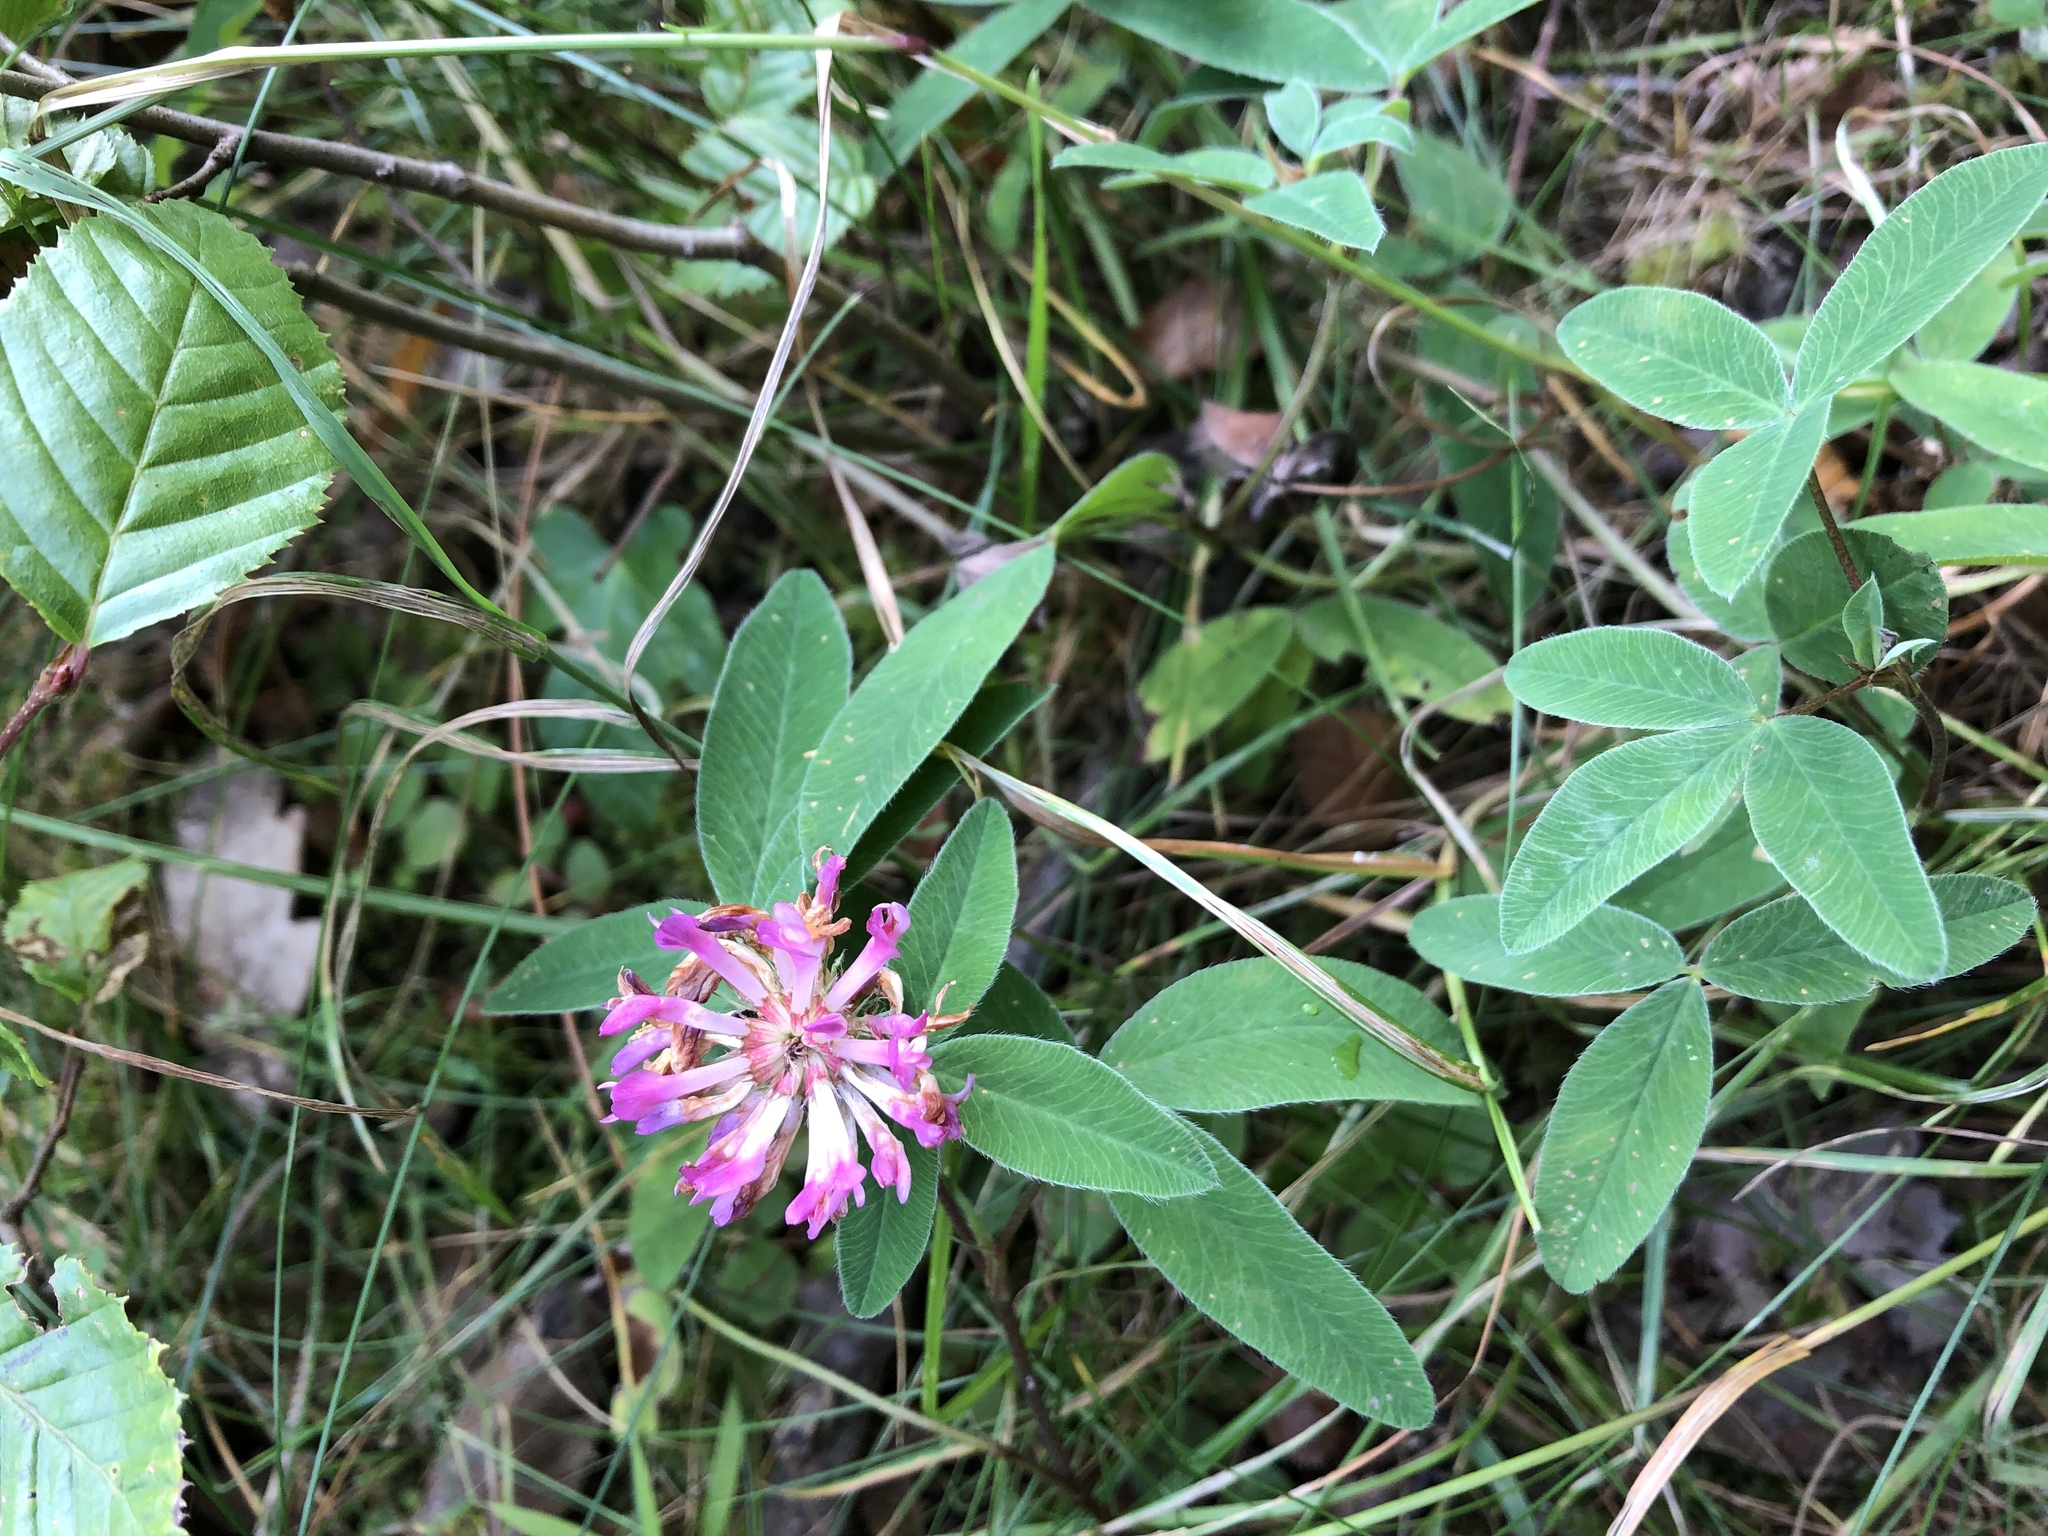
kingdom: Plantae
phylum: Tracheophyta
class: Magnoliopsida
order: Fabales
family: Fabaceae
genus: Trifolium
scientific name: Trifolium medium
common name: Zigzag clover
